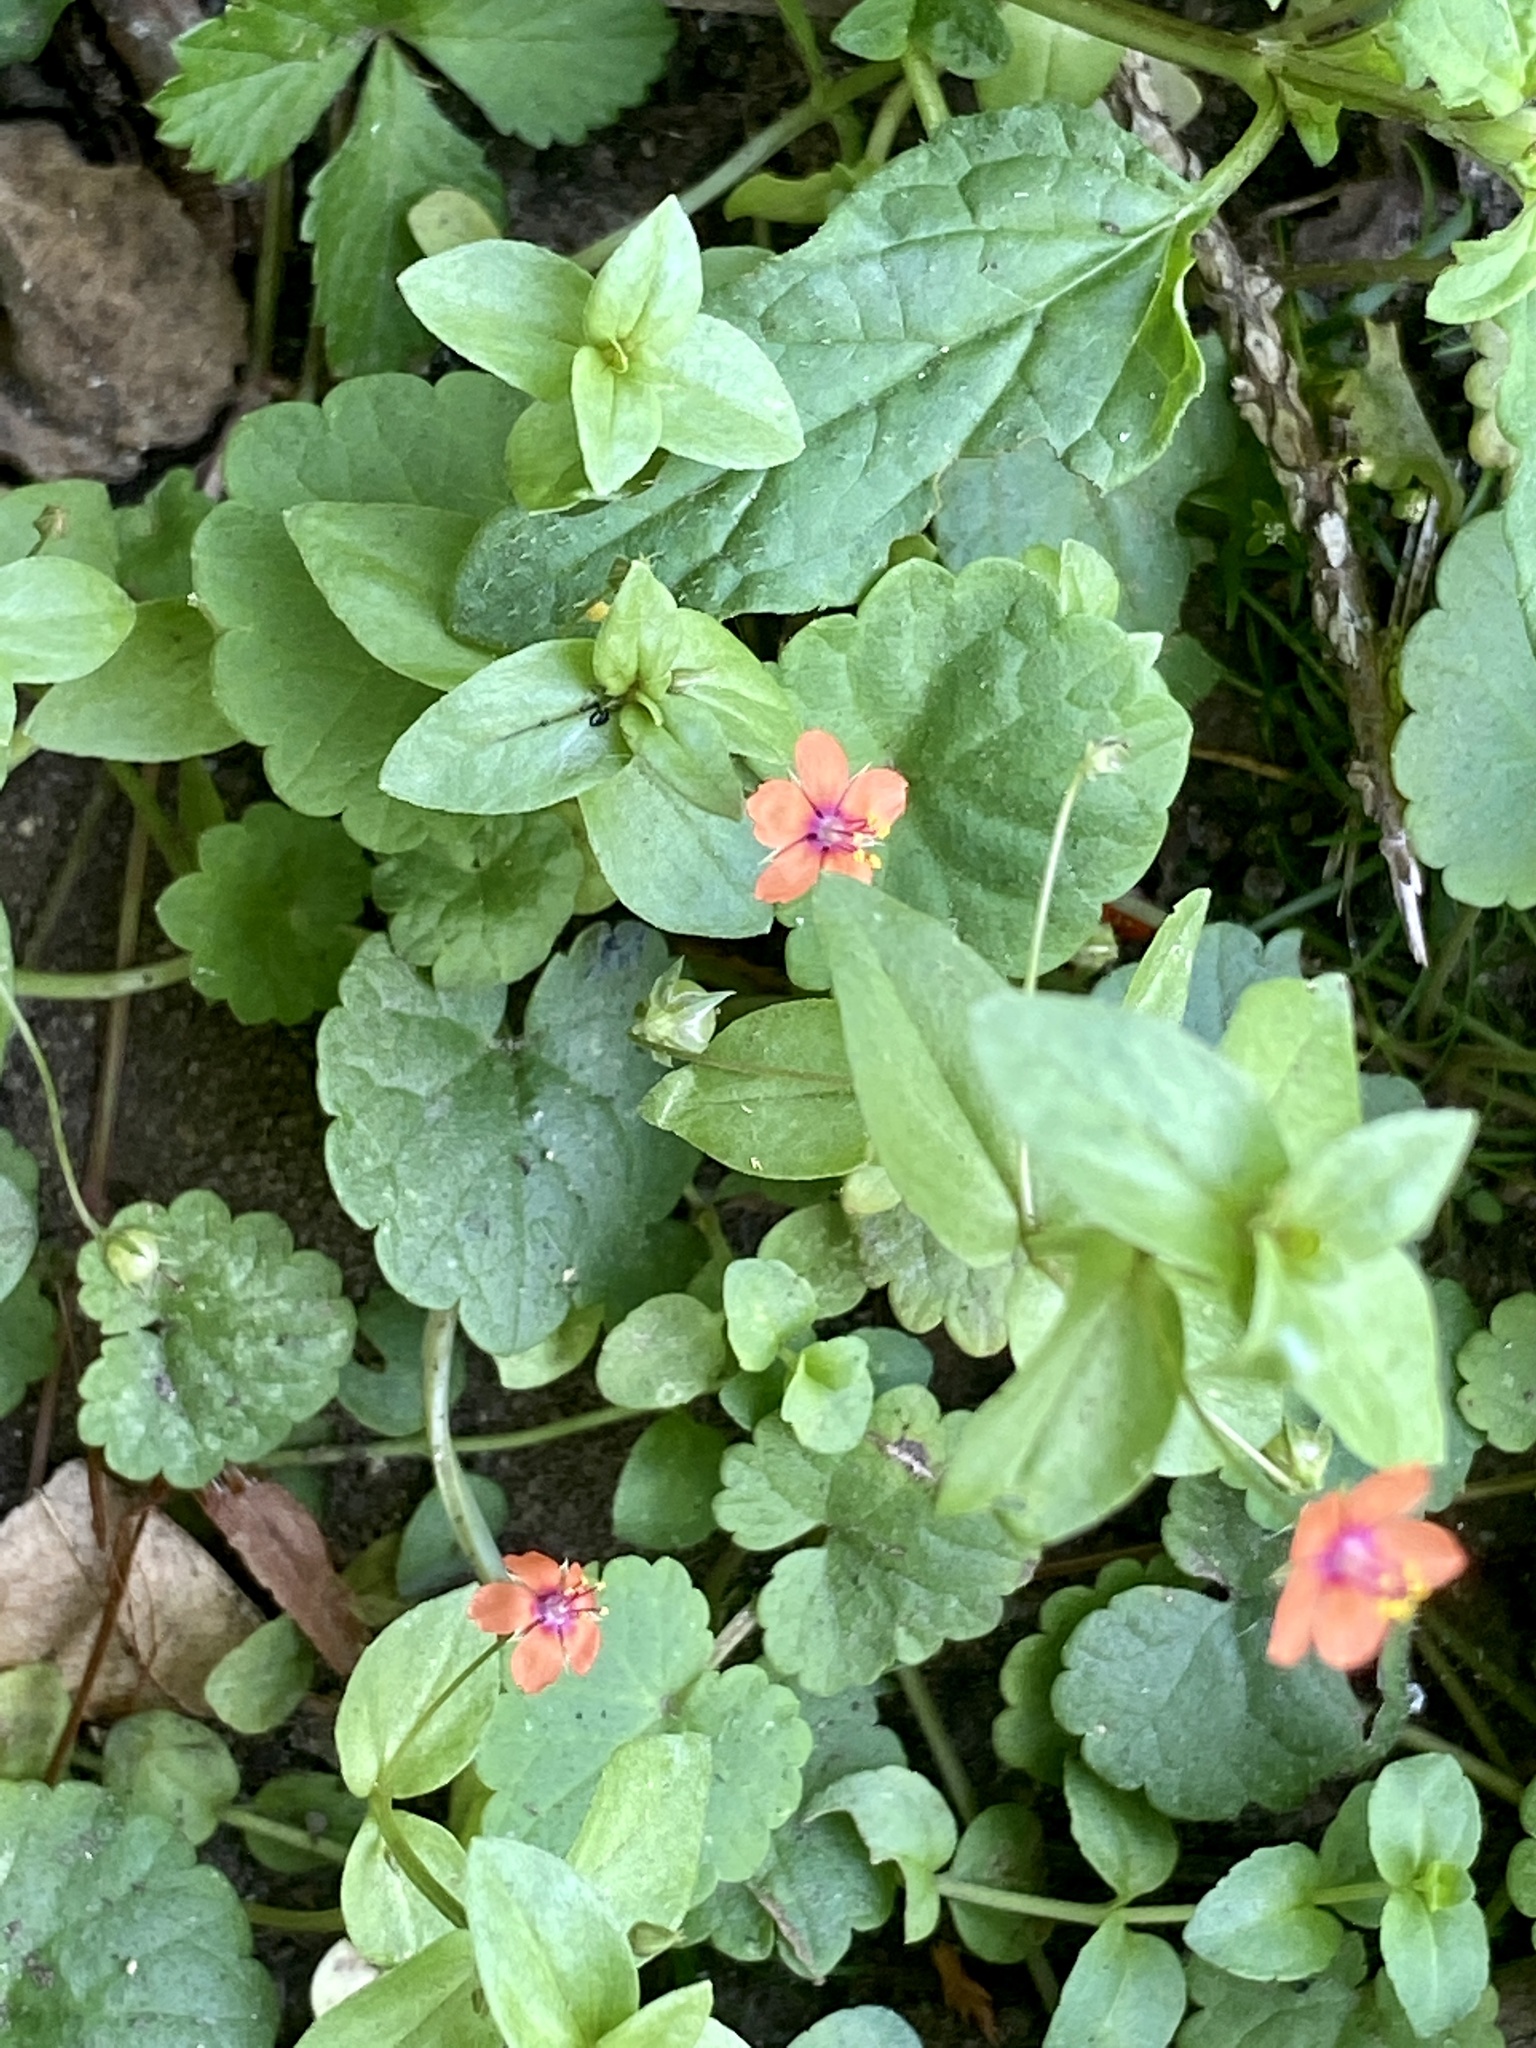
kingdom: Plantae
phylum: Tracheophyta
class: Magnoliopsida
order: Ericales
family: Primulaceae
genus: Lysimachia
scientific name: Lysimachia arvensis
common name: Scarlet pimpernel
